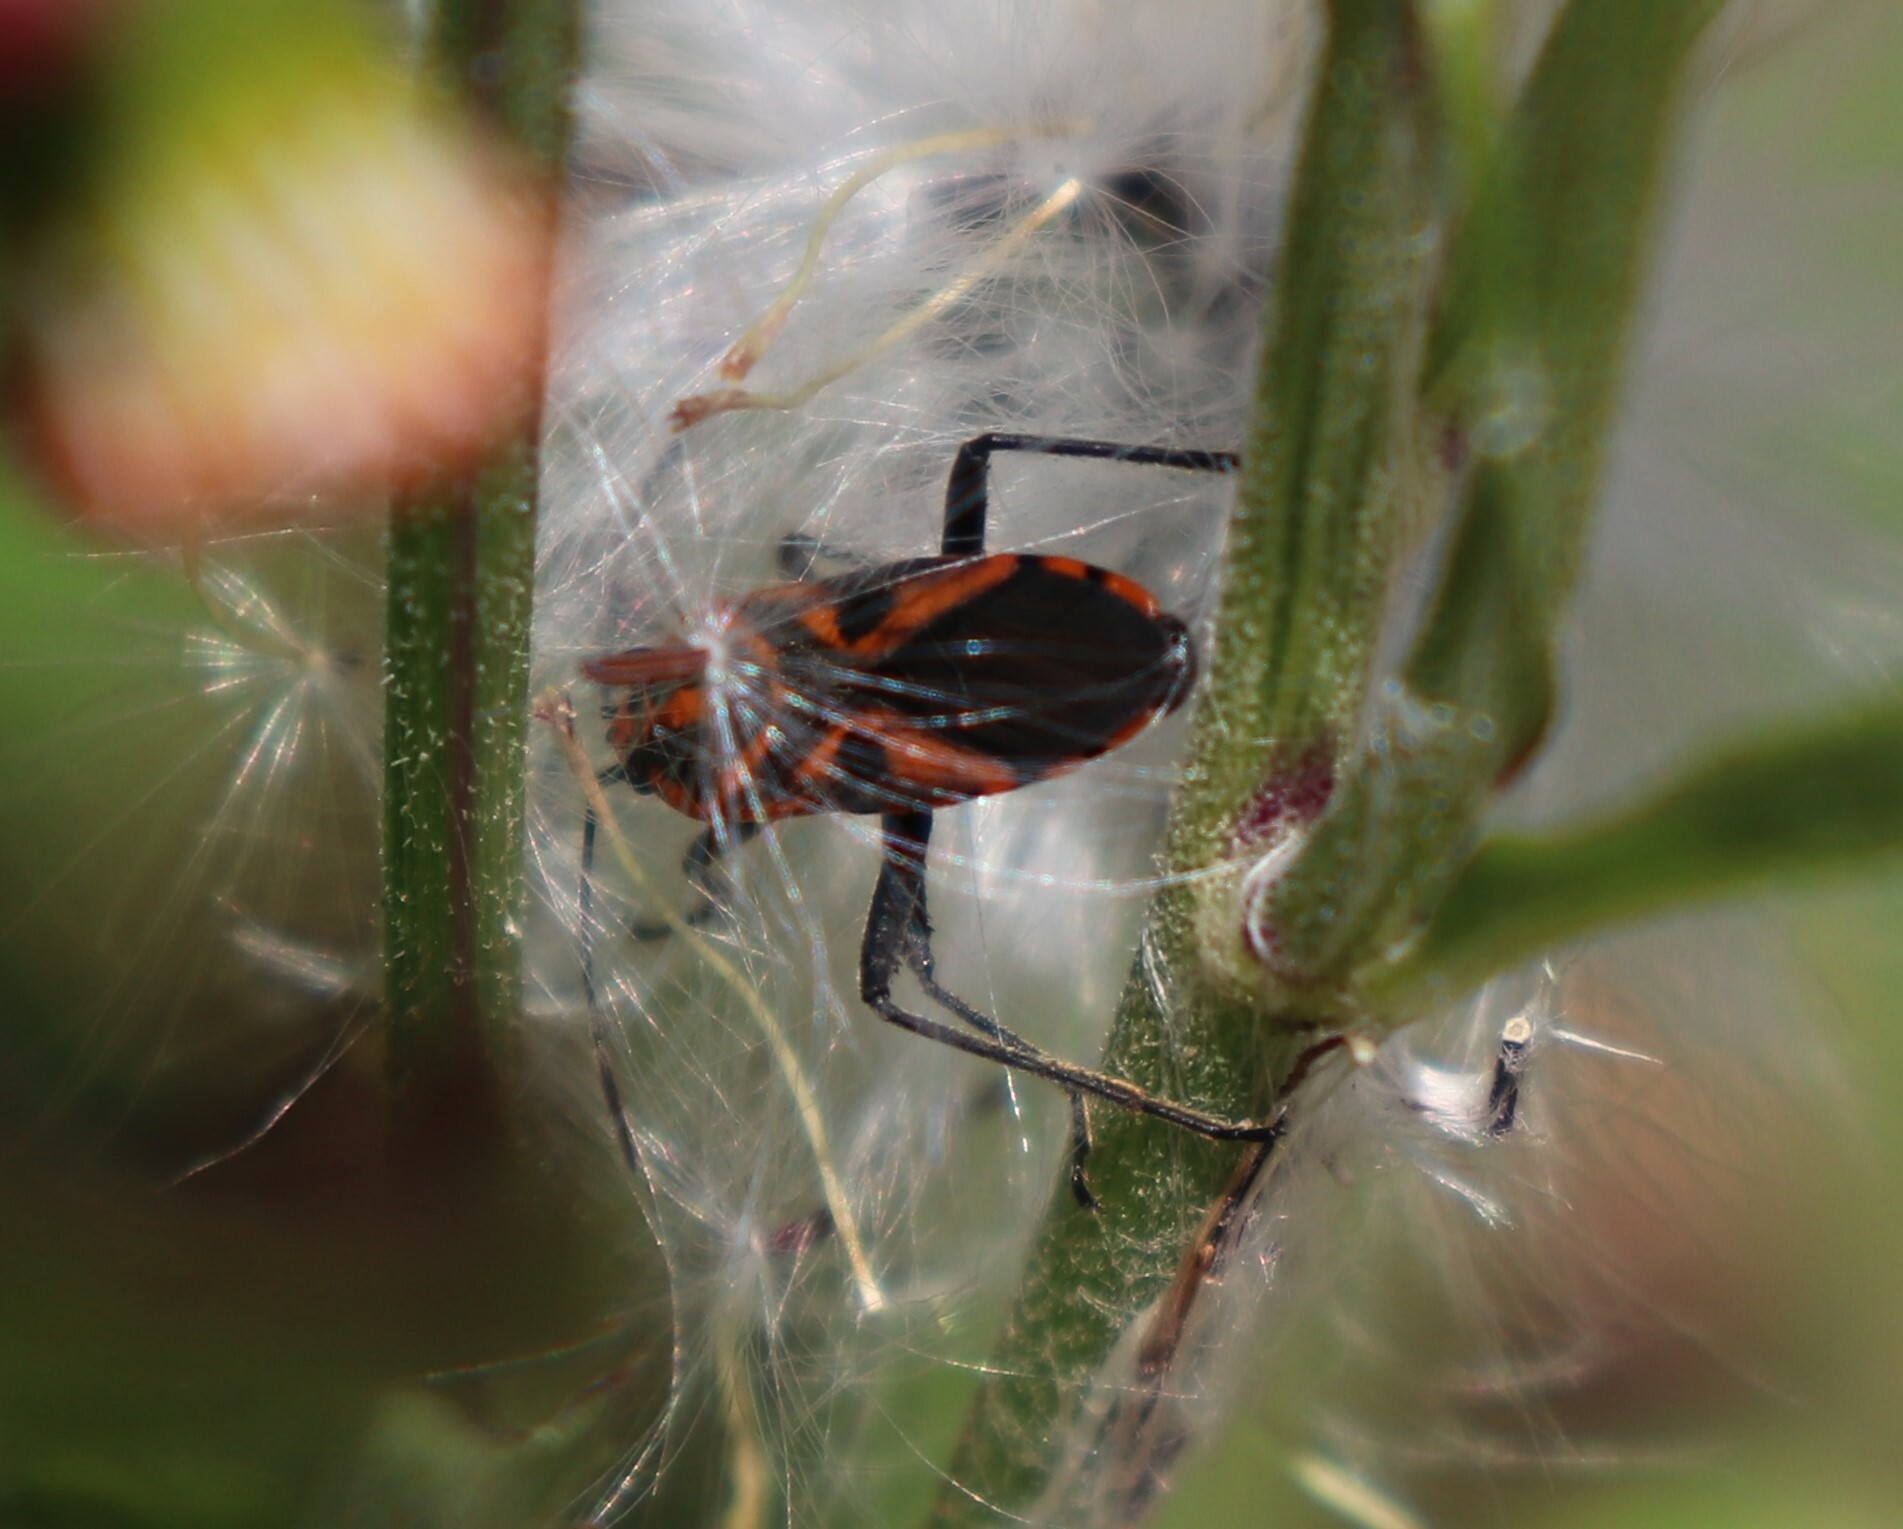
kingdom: Animalia
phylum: Arthropoda
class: Insecta
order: Hemiptera
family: Lygaeidae
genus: Spilostethus
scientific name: Spilostethus hospes
